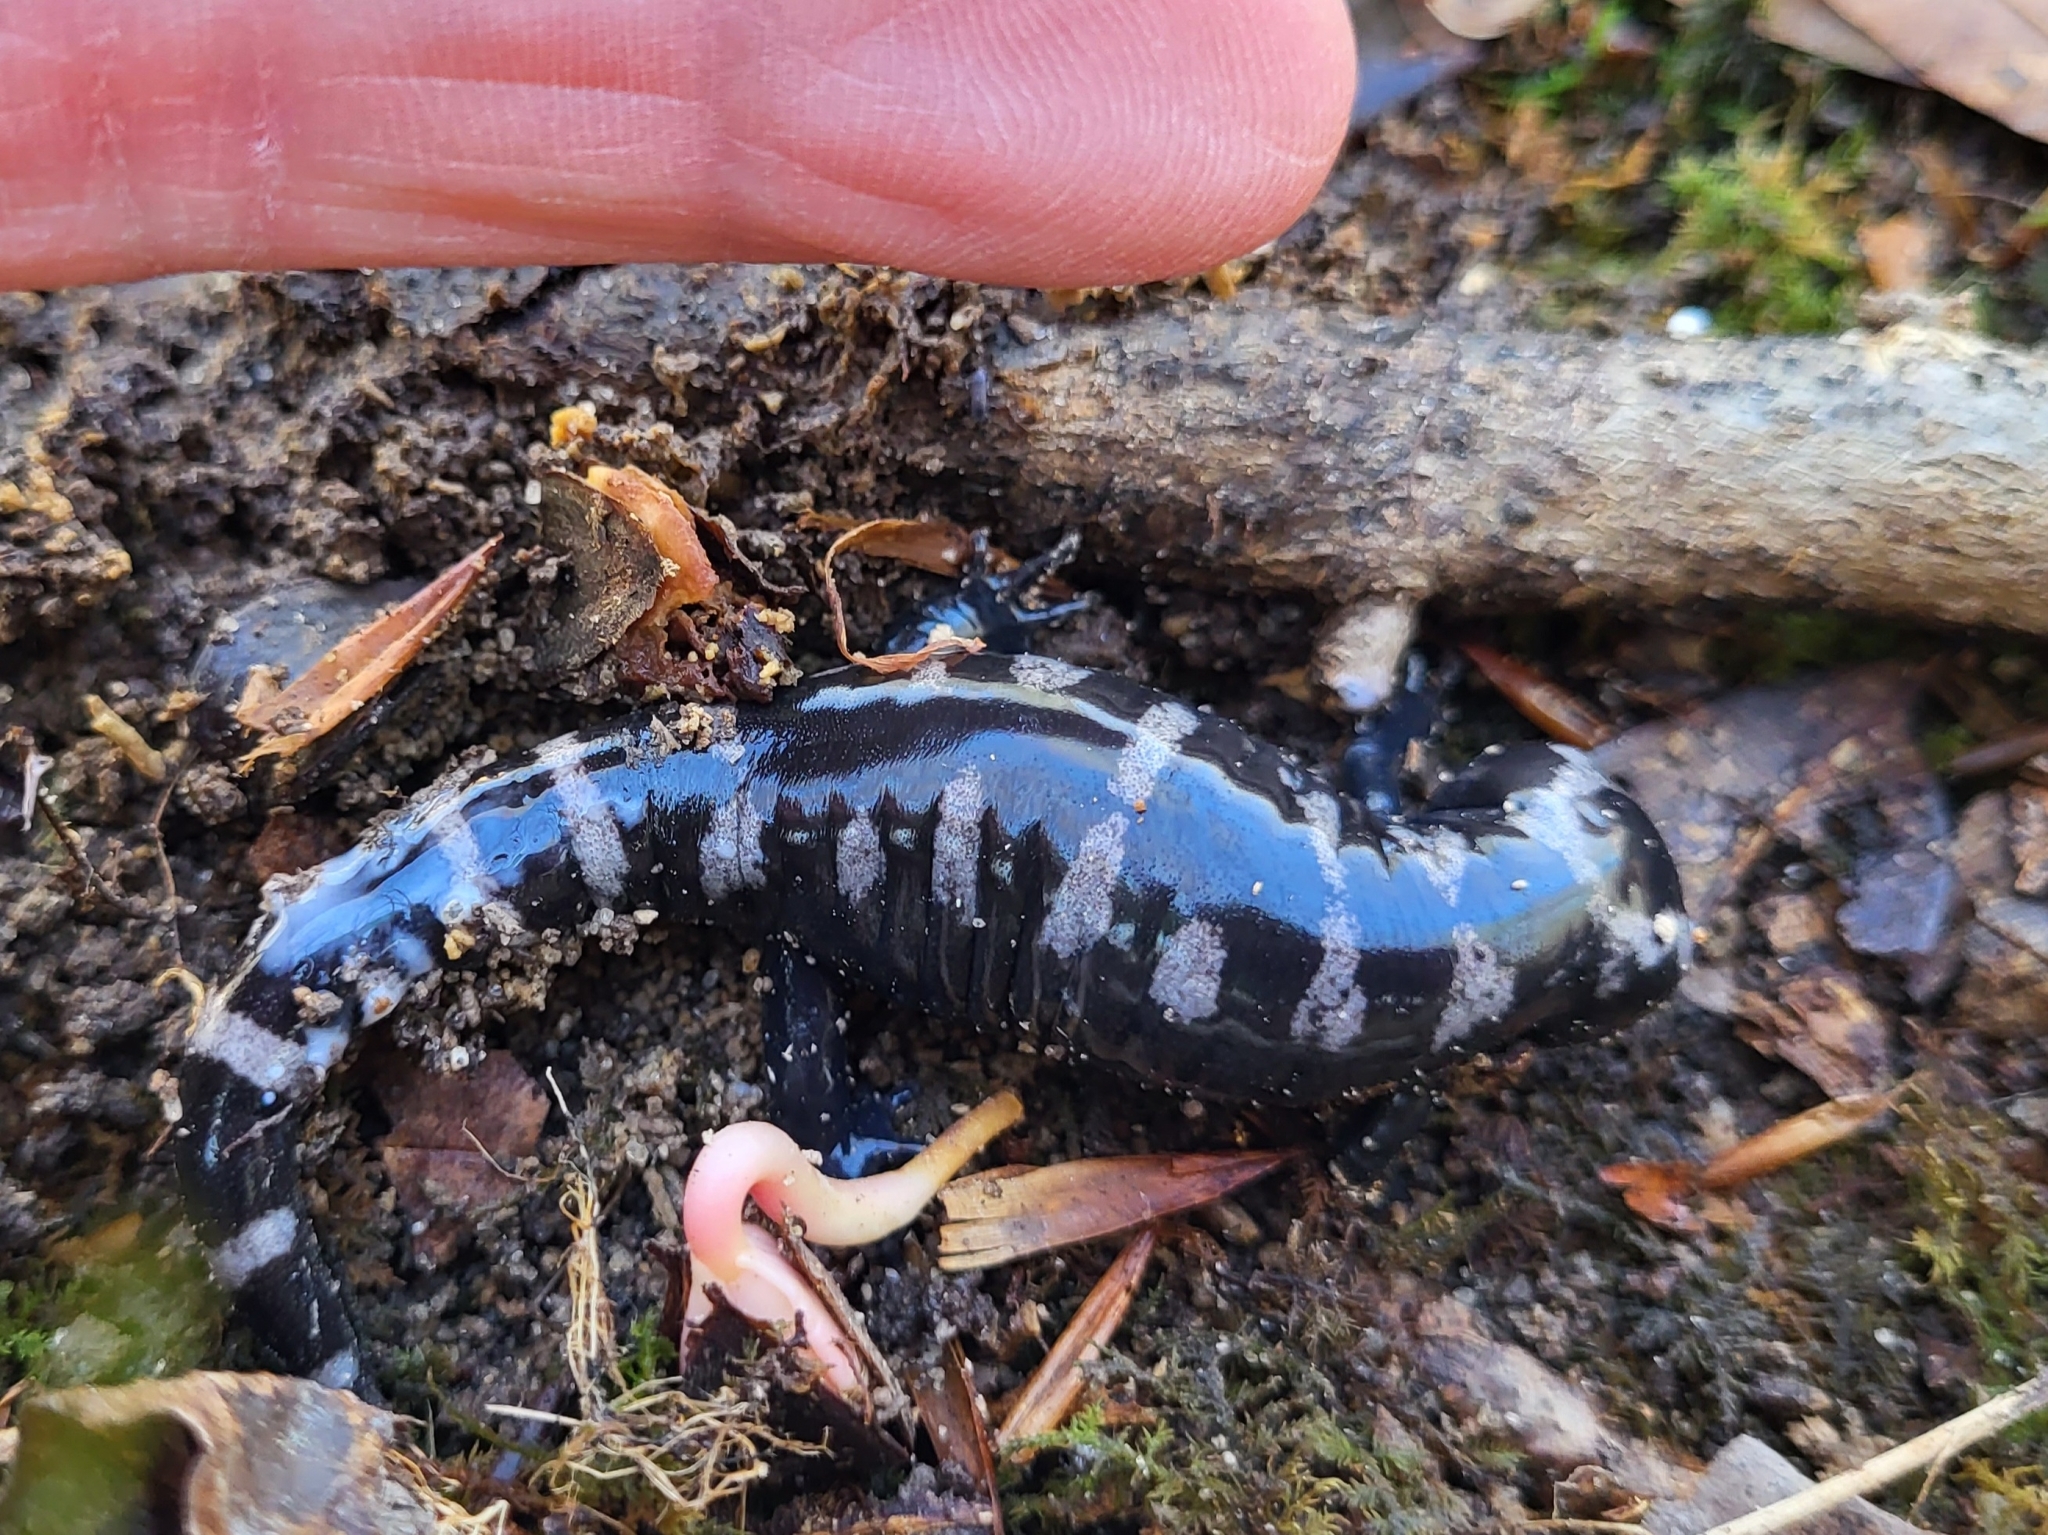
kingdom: Animalia
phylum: Chordata
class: Amphibia
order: Caudata
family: Ambystomatidae
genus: Ambystoma
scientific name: Ambystoma opacum
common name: Marbled salamander
